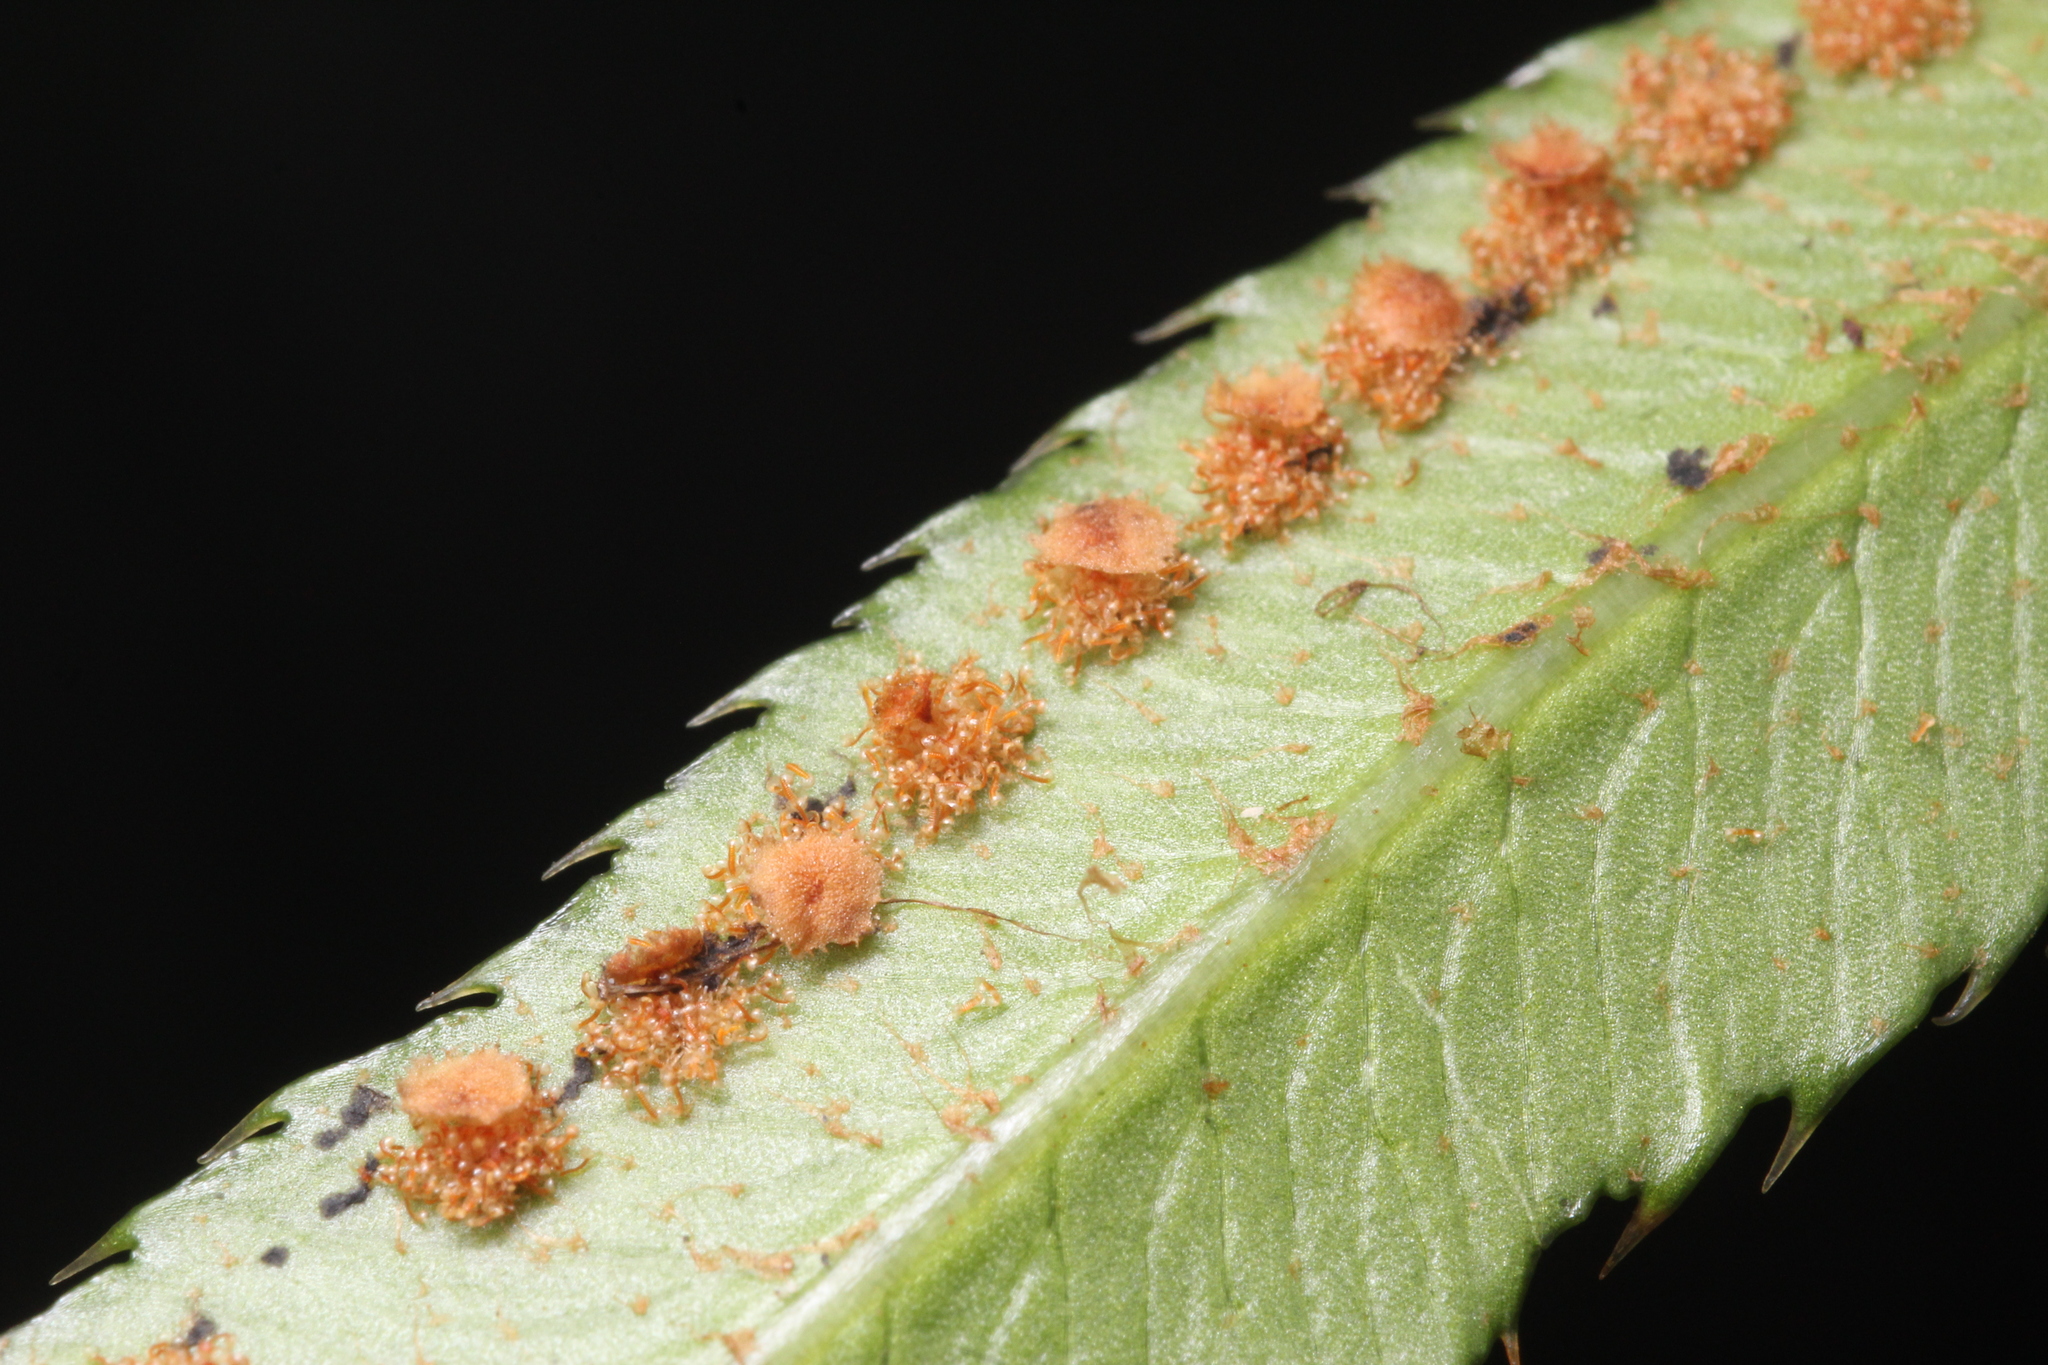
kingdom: Plantae
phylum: Tracheophyta
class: Polypodiopsida
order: Polypodiales
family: Dryopteridaceae
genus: Polystichum
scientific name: Polystichum munitum
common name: Western sword-fern
